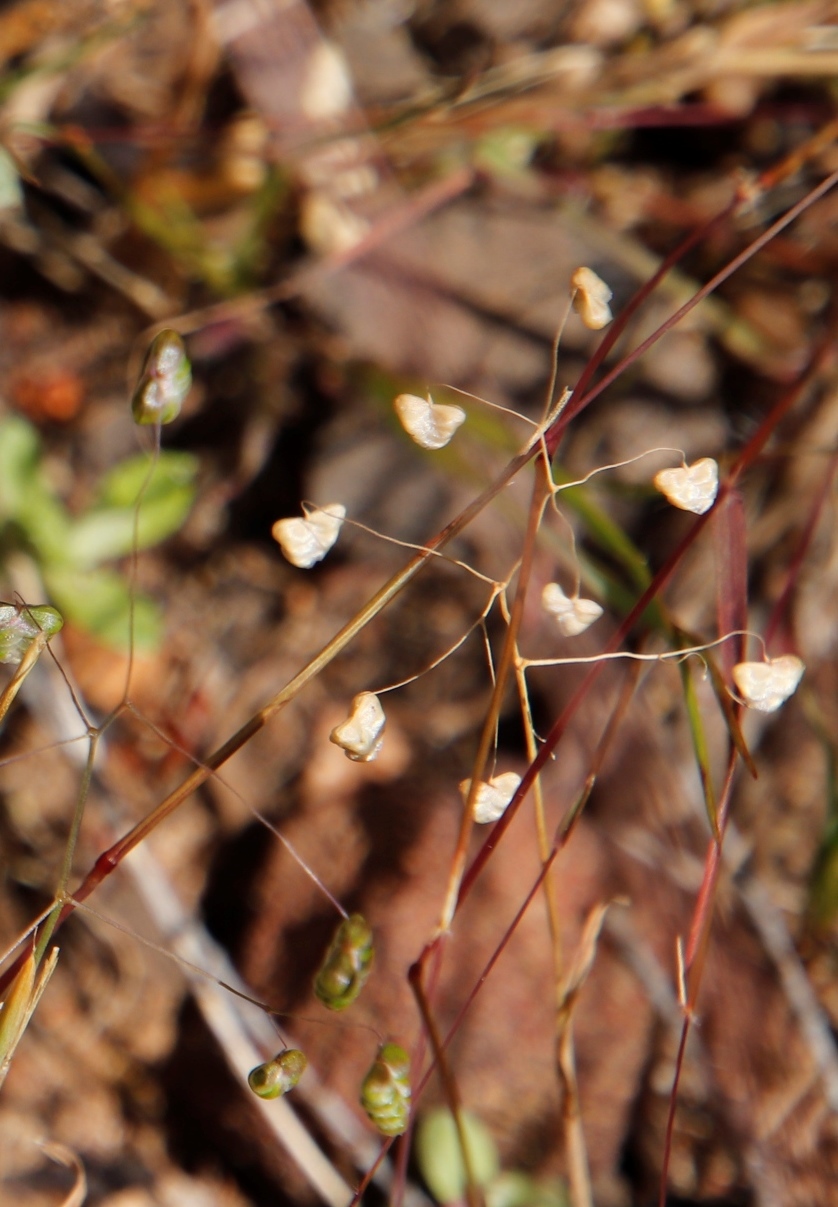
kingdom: Plantae
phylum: Tracheophyta
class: Liliopsida
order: Poales
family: Poaceae
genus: Briza
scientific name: Briza minor
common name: Lesser quaking-grass
